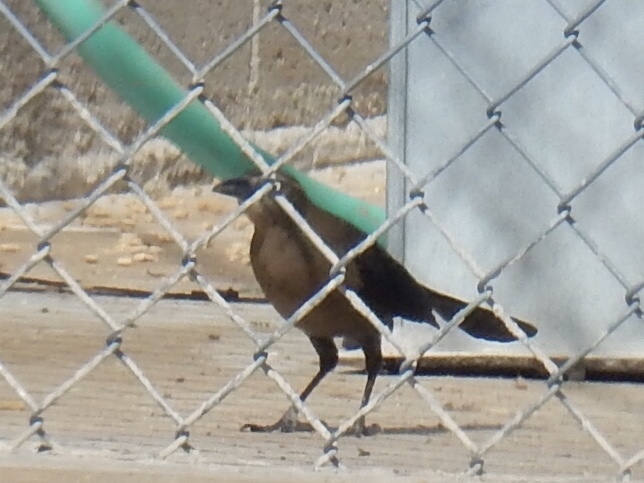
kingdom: Animalia
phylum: Chordata
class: Aves
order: Passeriformes
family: Icteridae
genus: Quiscalus
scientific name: Quiscalus mexicanus
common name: Great-tailed grackle
